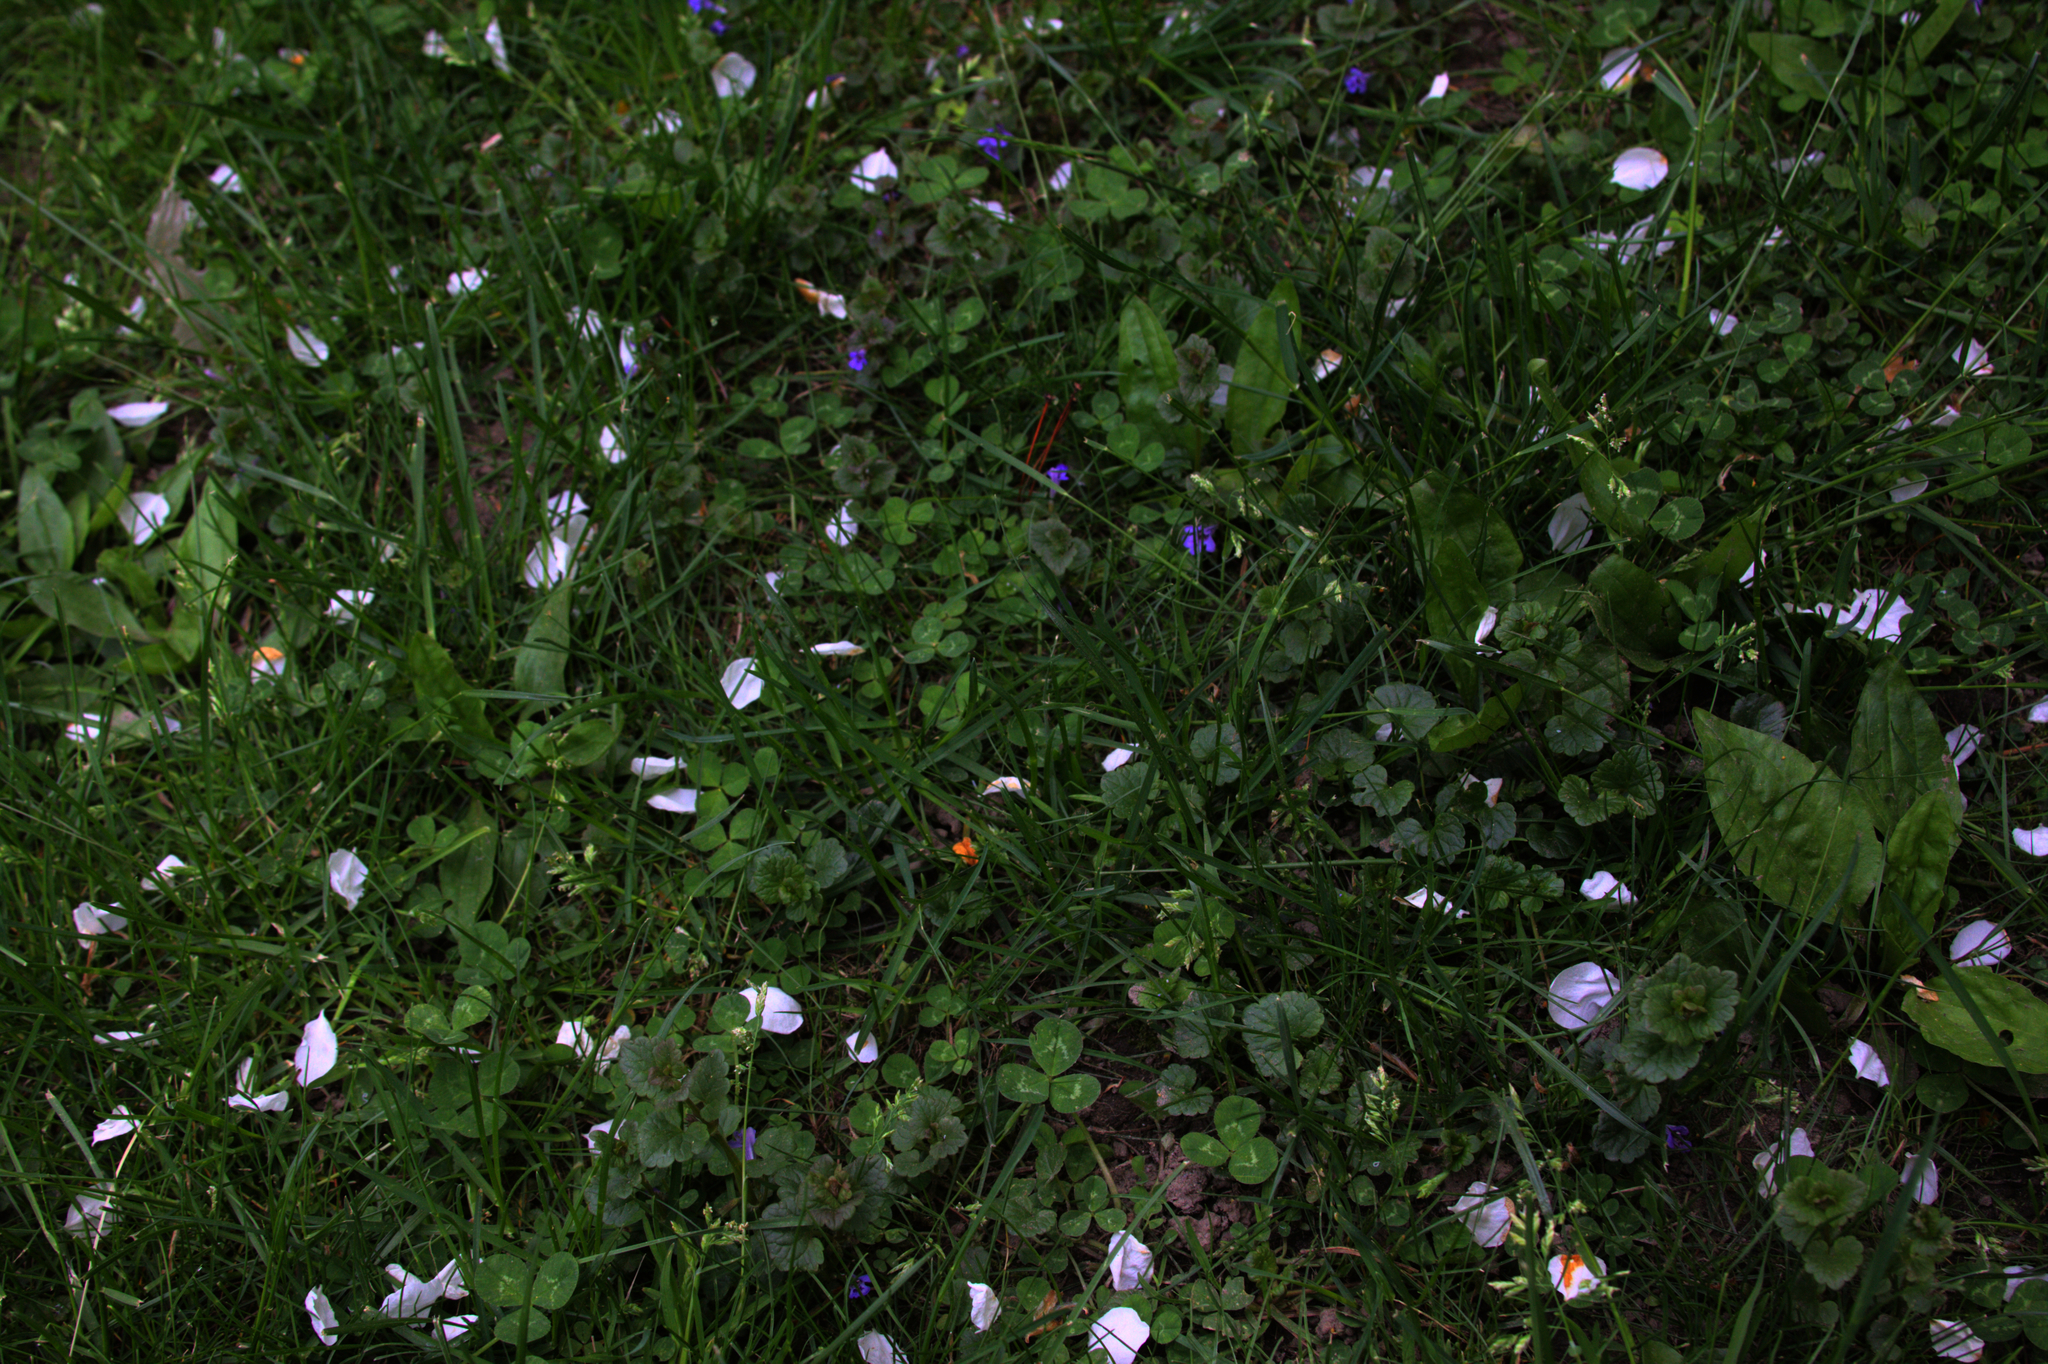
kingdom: Plantae
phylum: Tracheophyta
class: Magnoliopsida
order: Lamiales
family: Lamiaceae
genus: Glechoma
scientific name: Glechoma hederacea
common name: Ground ivy
